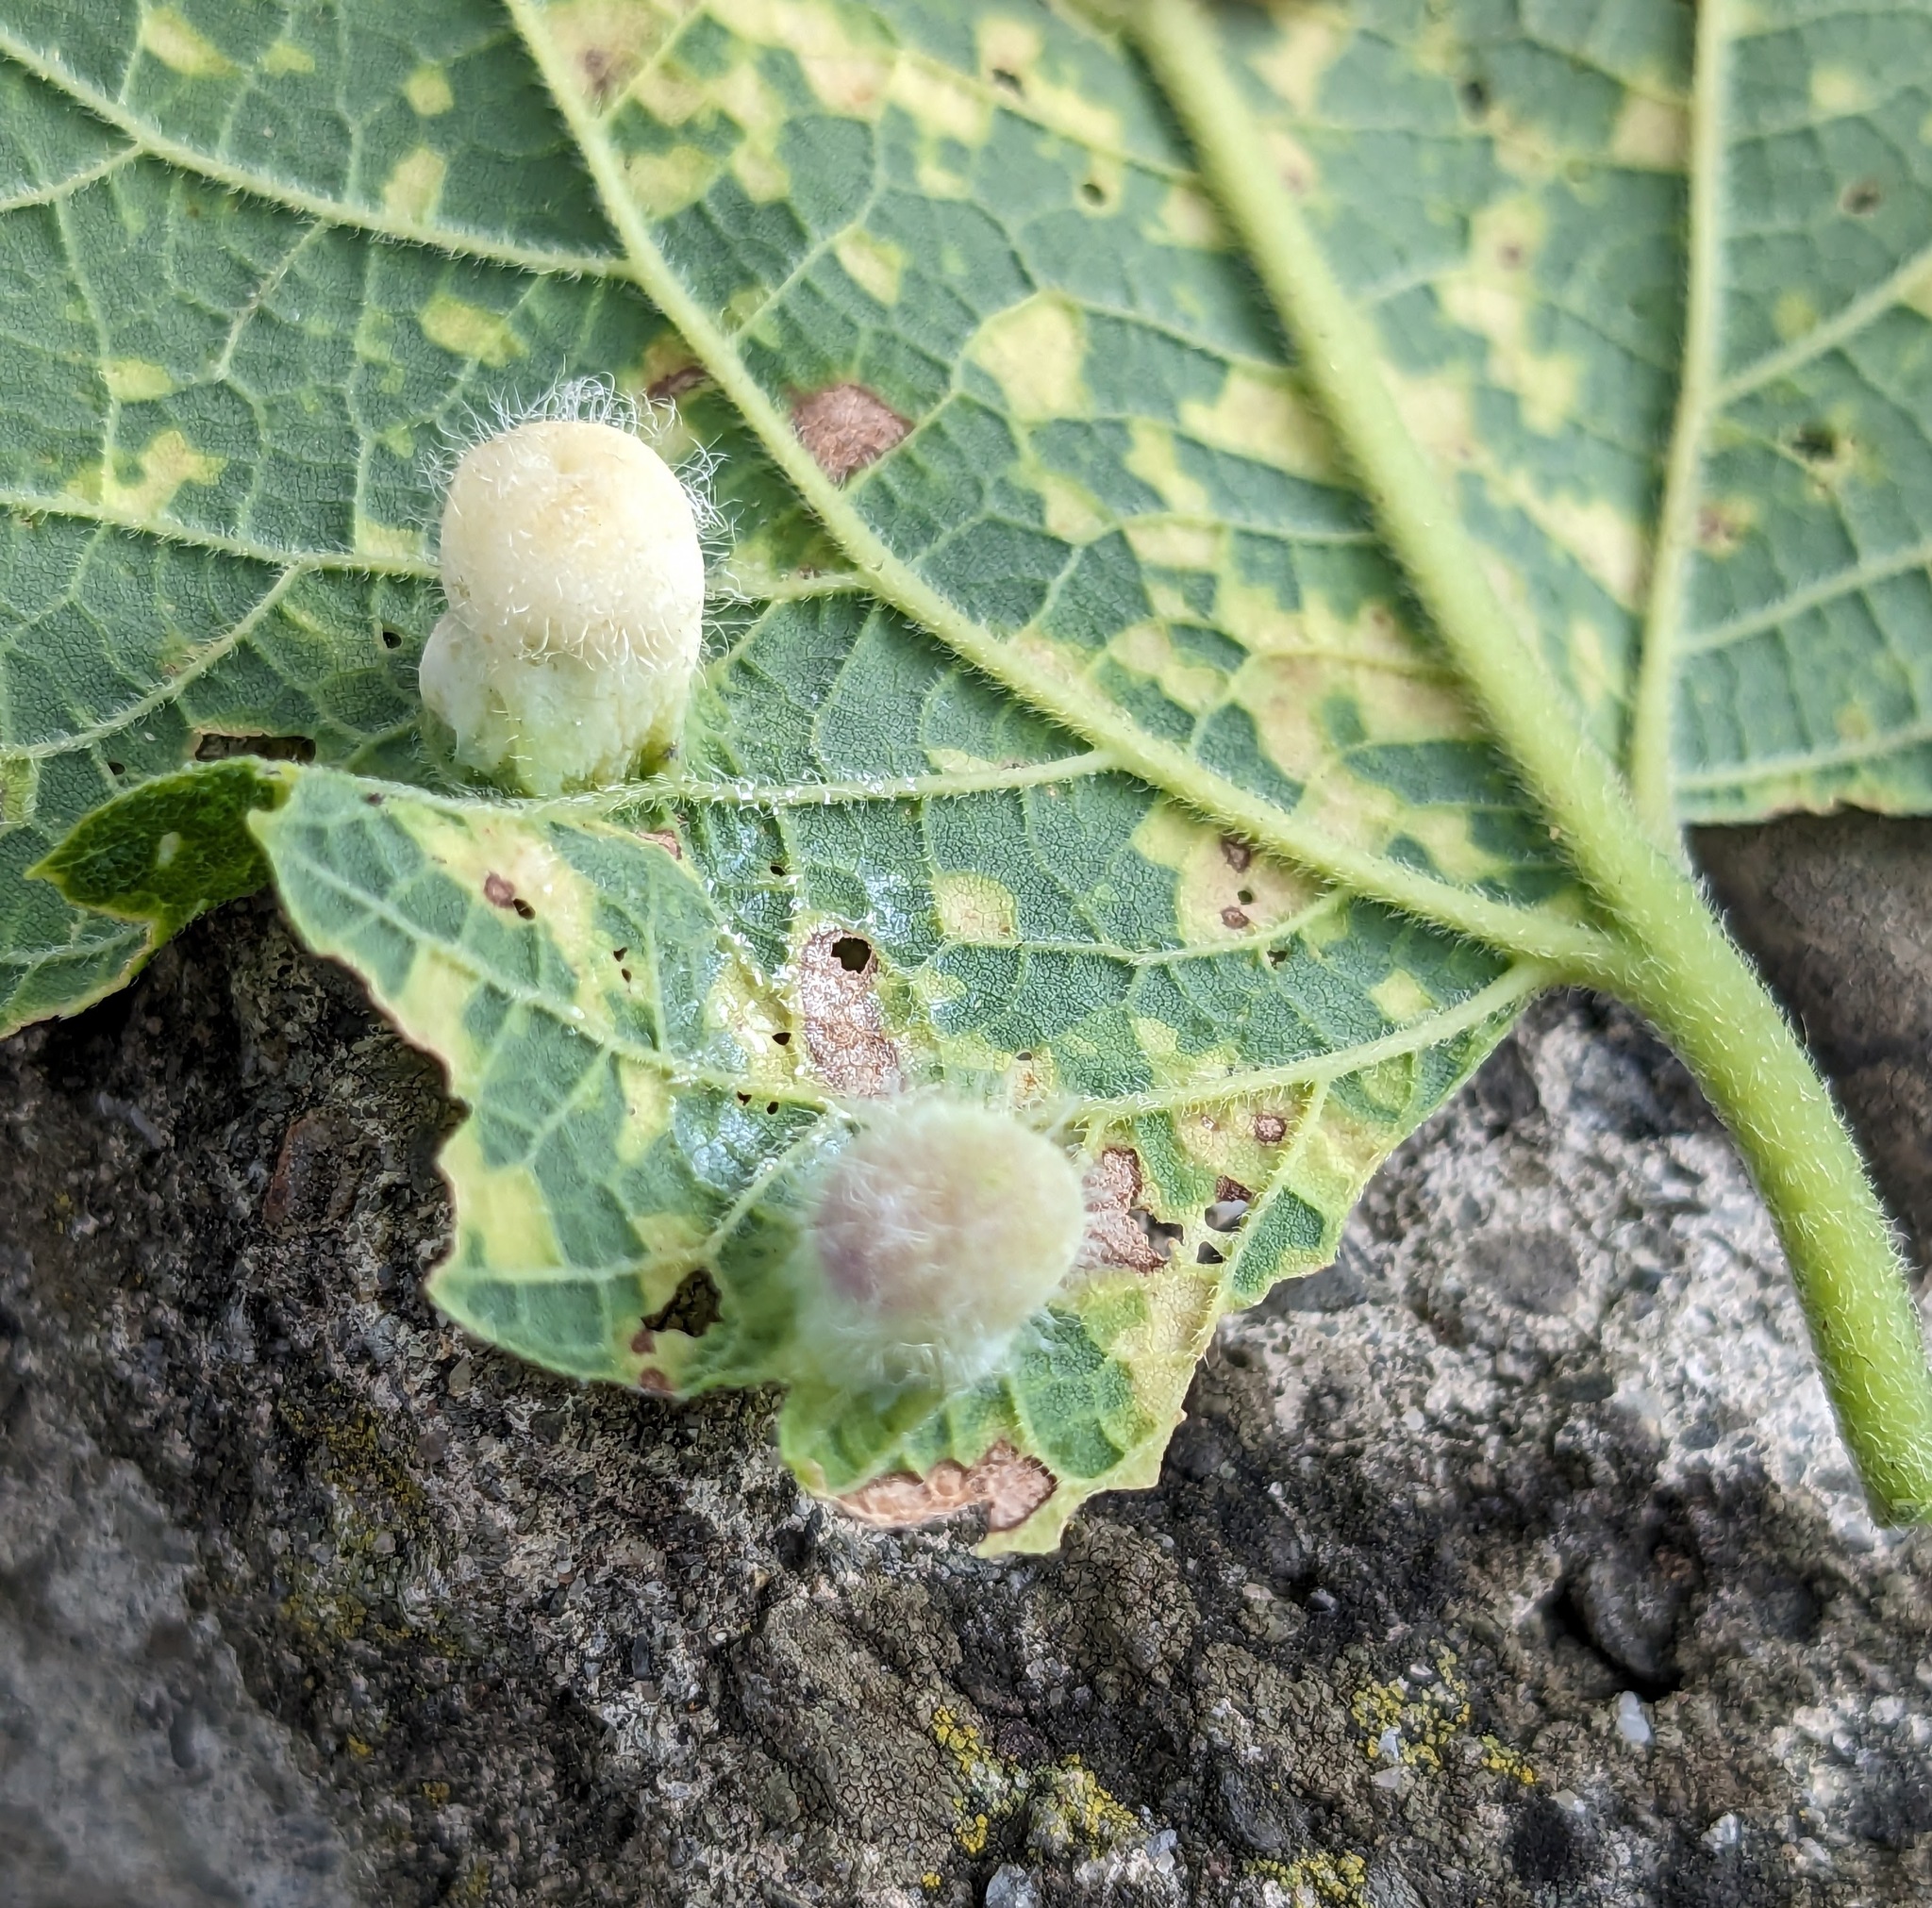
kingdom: Animalia
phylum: Arthropoda
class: Insecta
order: Hemiptera
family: Aphalaridae
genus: Pachypsylla
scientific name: Pachypsylla celtidismamma
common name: Hackberry nipplegall psyllid
